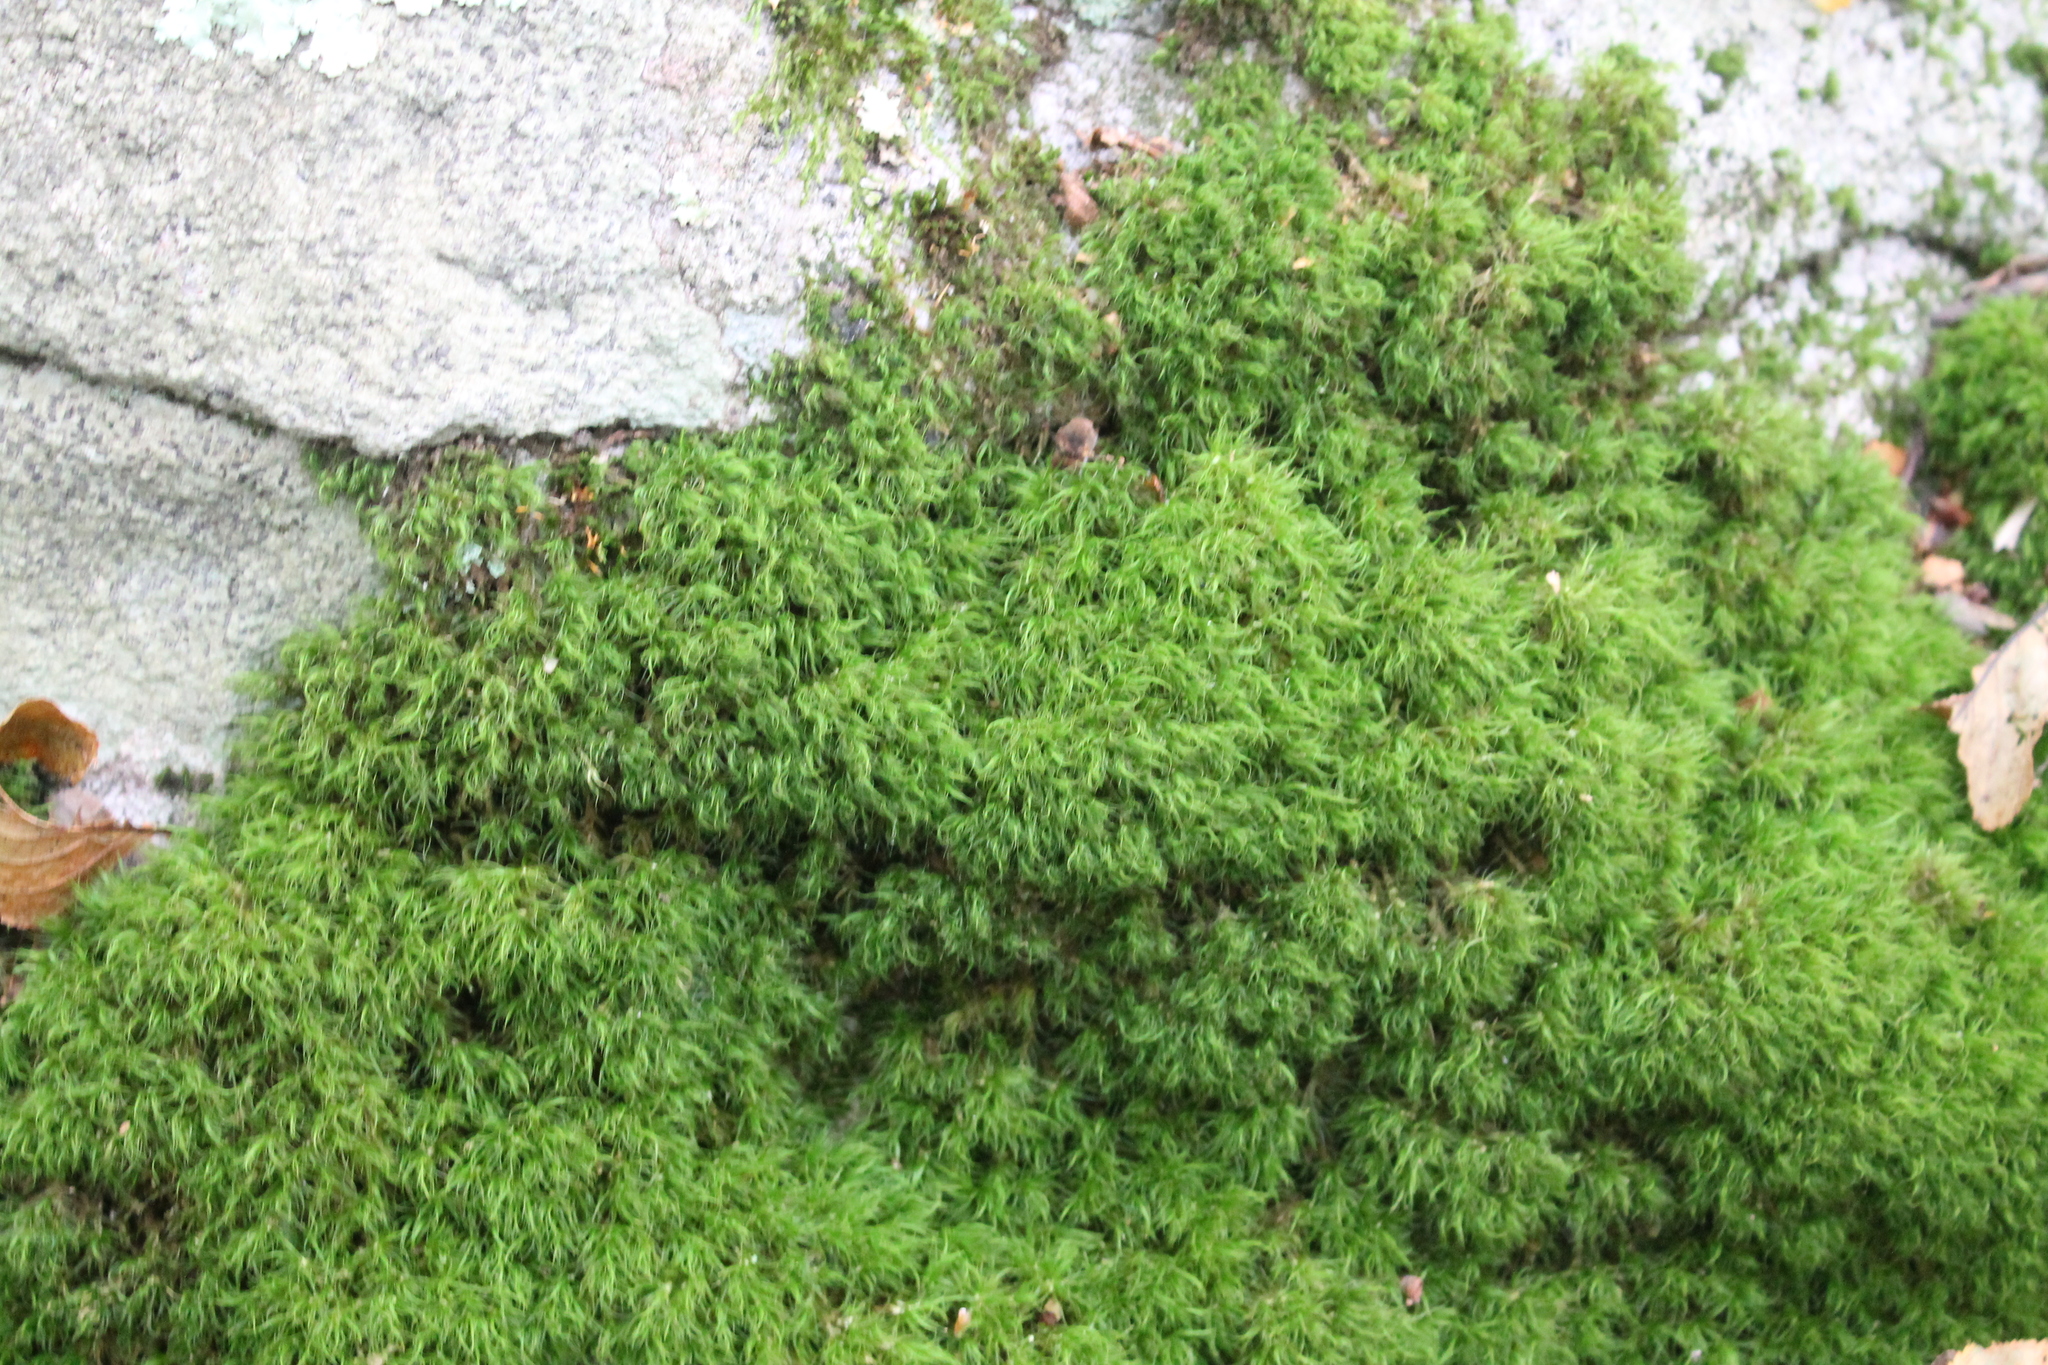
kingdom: Plantae
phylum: Bryophyta
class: Bryopsida
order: Dicranales
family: Dicranaceae
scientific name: Dicranaceae
